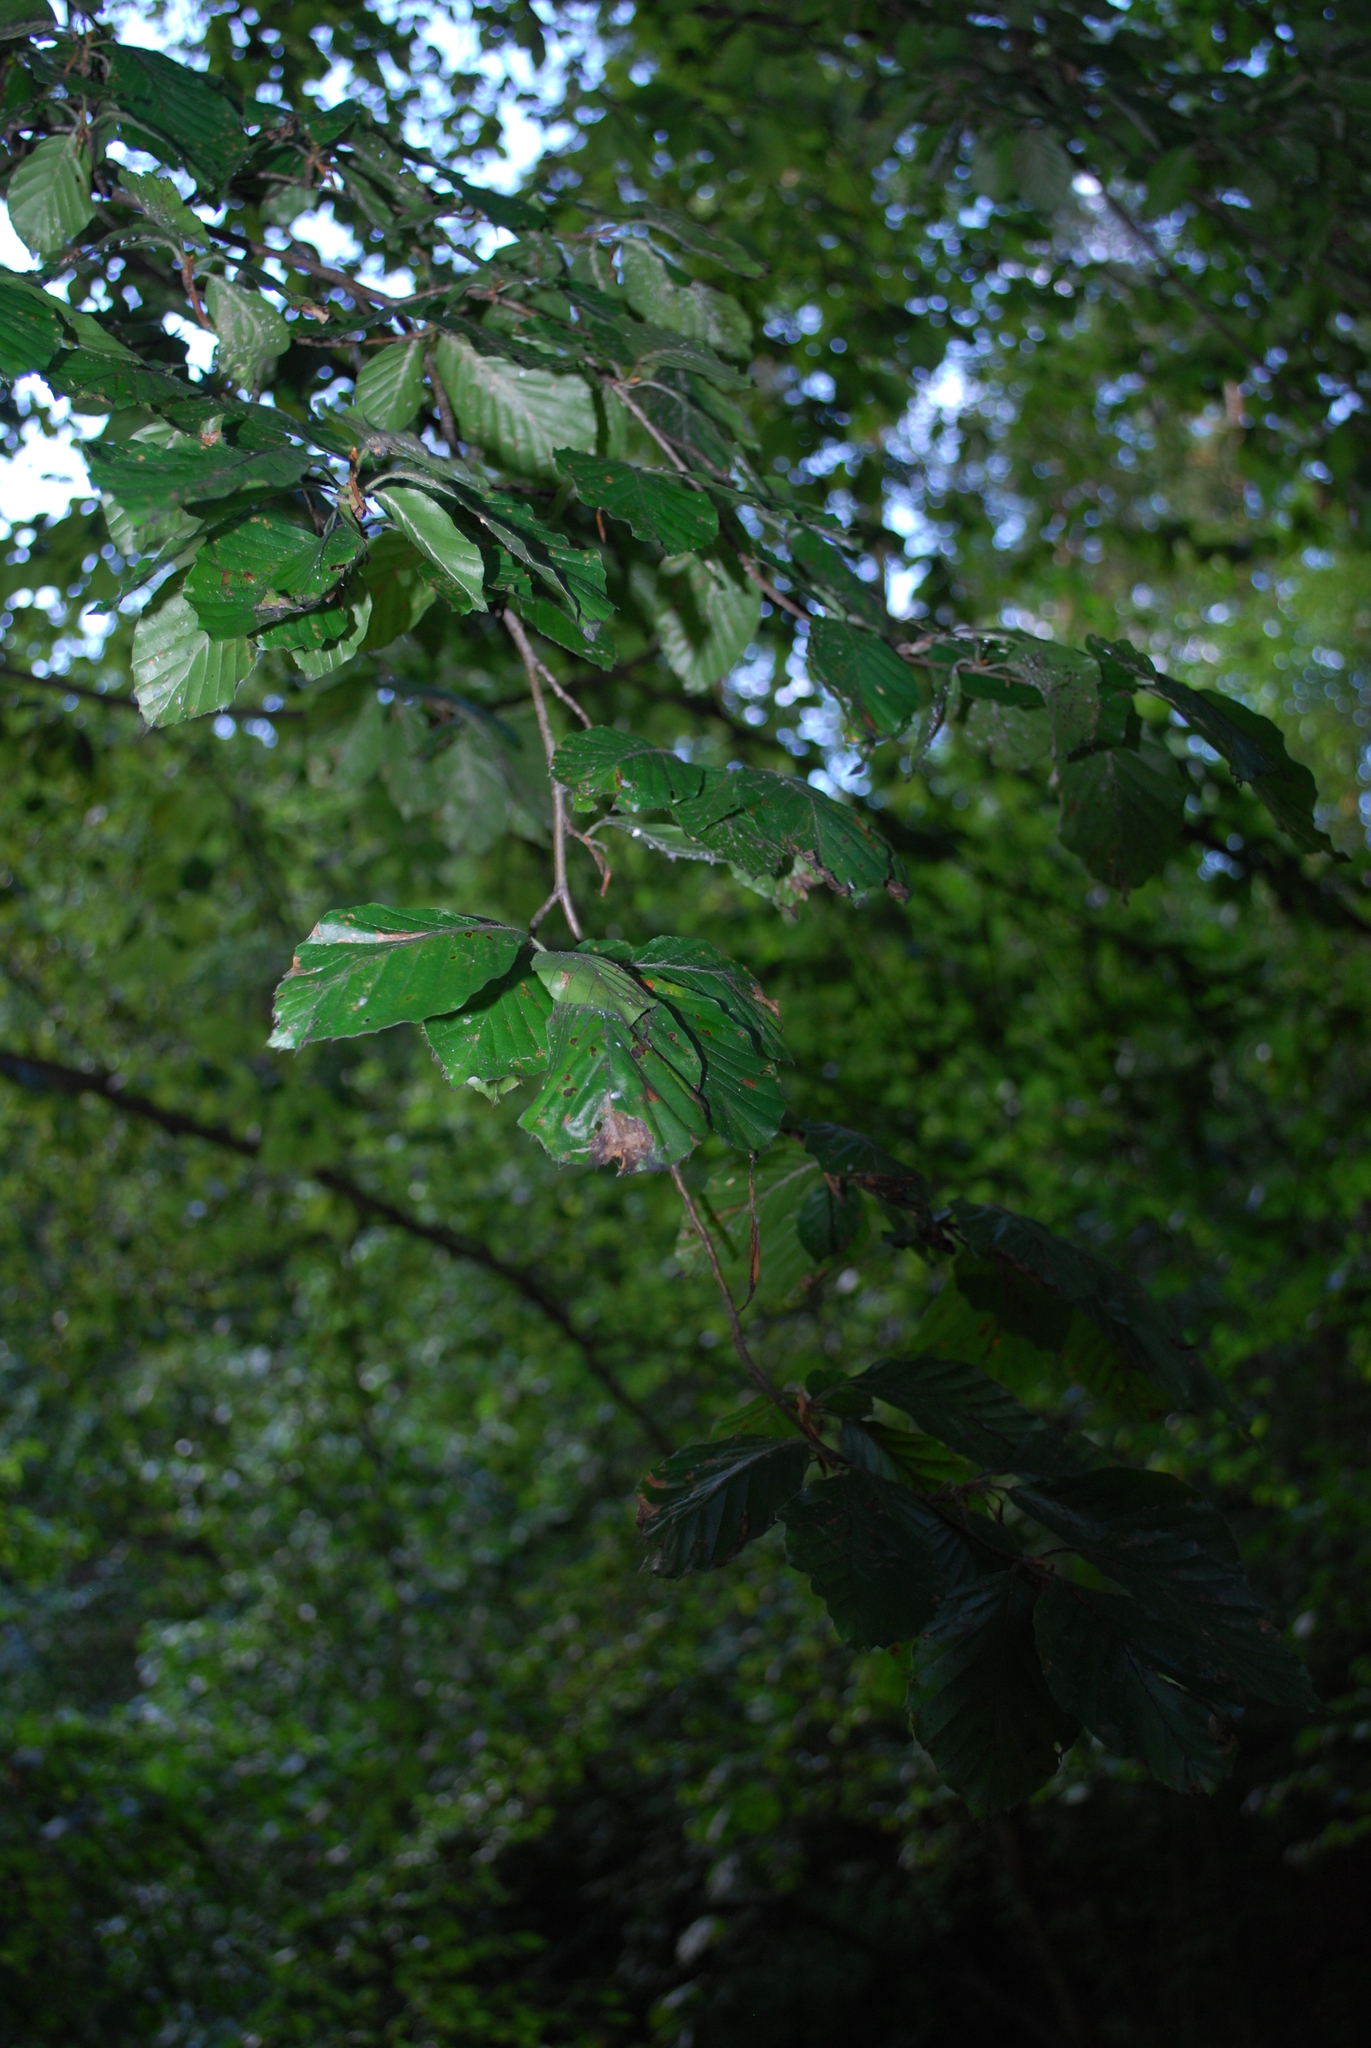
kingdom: Plantae
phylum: Tracheophyta
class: Magnoliopsida
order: Fagales
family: Fagaceae
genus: Fagus
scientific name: Fagus sylvatica
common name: Beech
